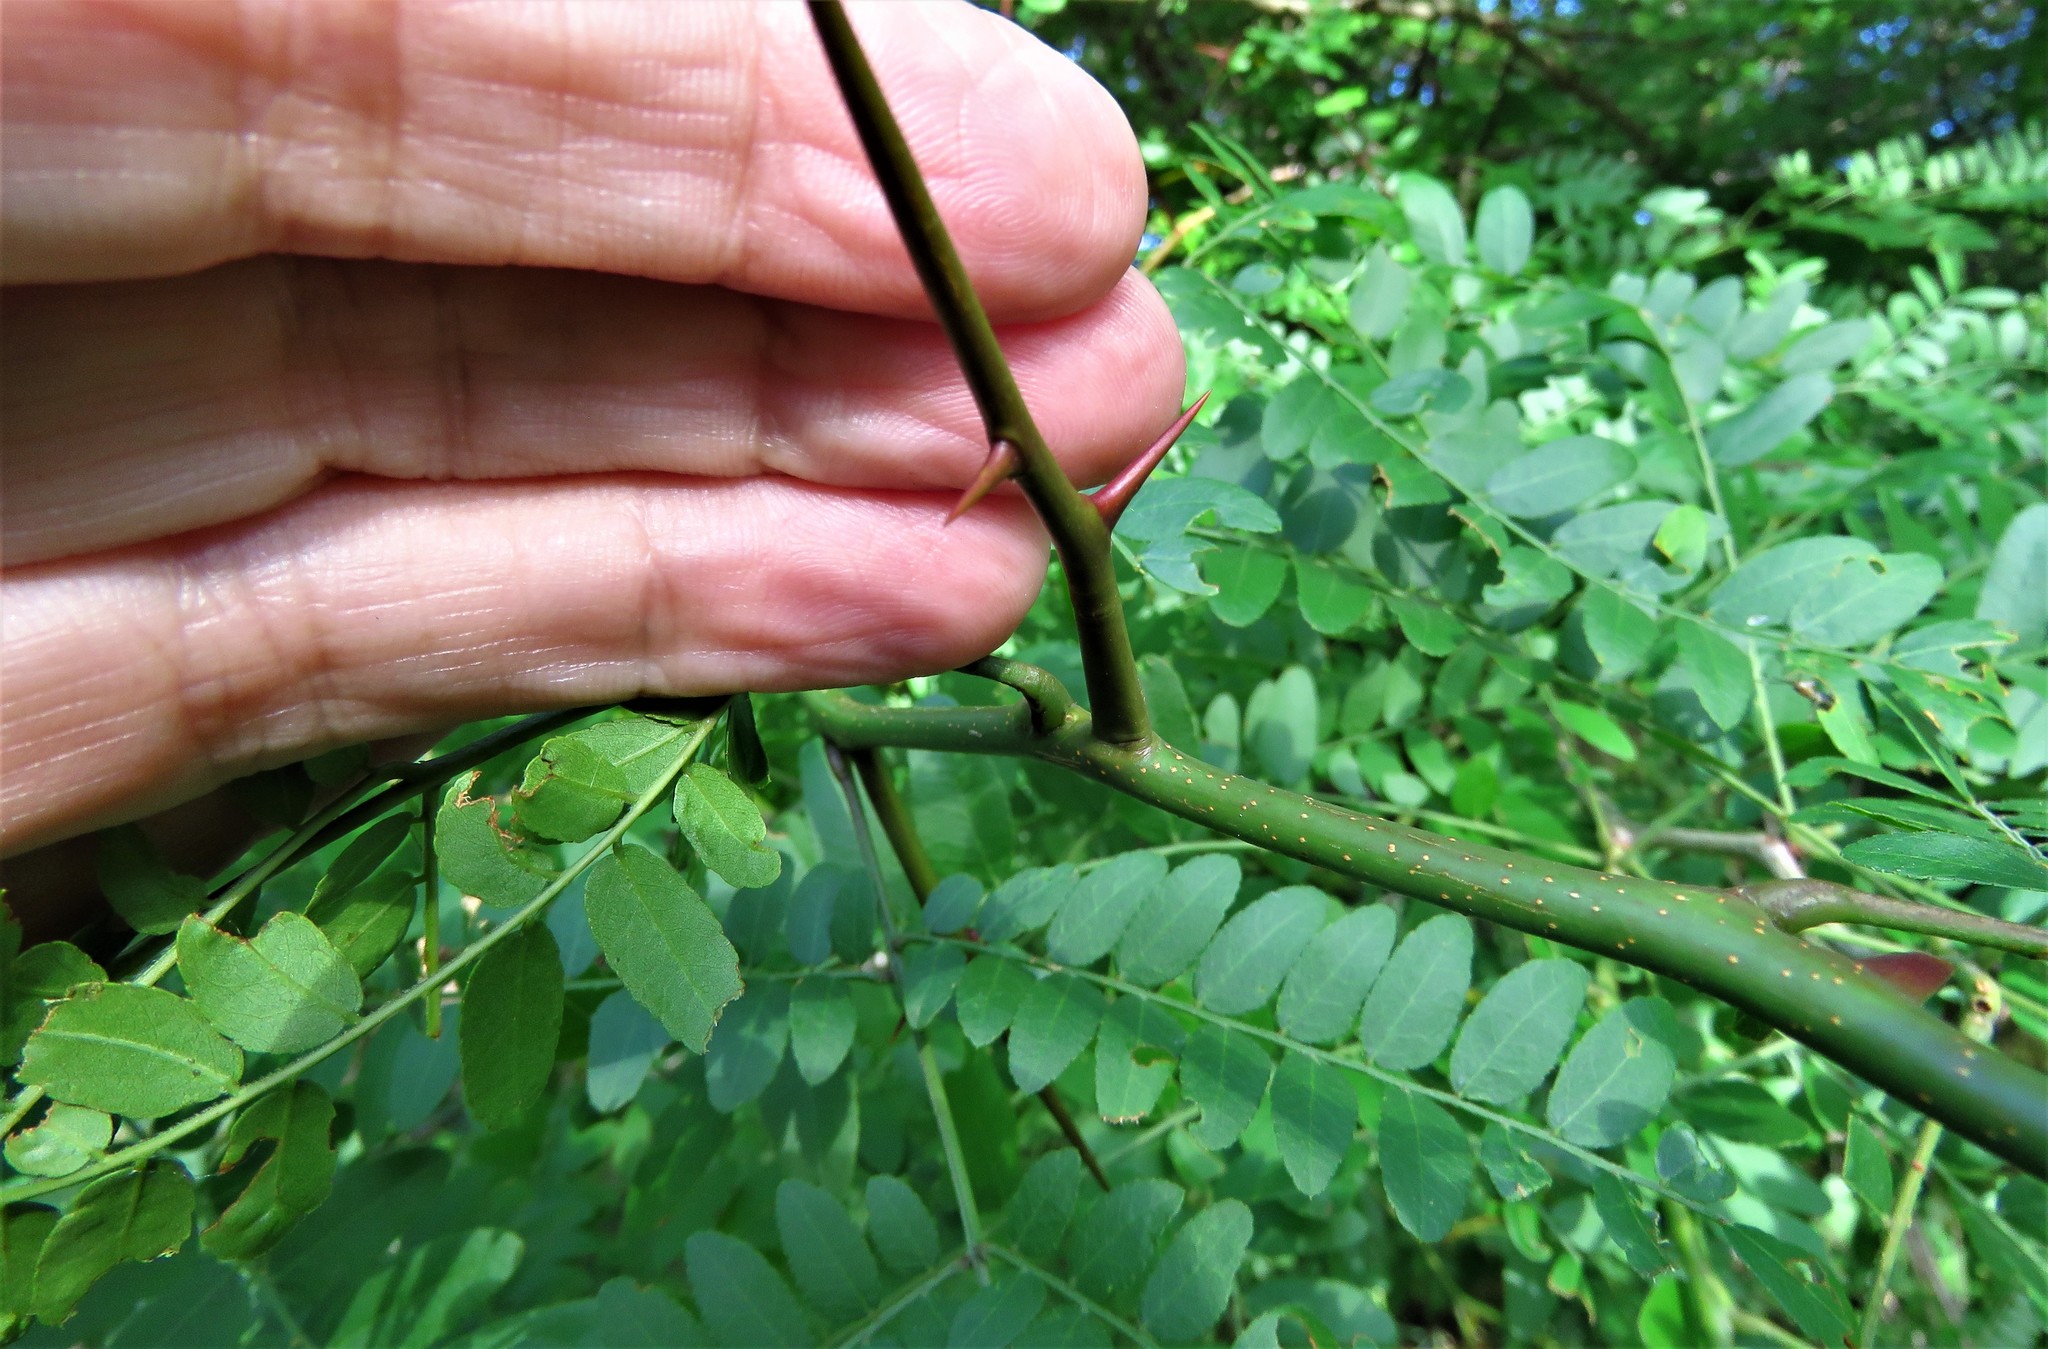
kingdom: Plantae
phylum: Tracheophyta
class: Magnoliopsida
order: Fabales
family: Fabaceae
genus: Gleditsia
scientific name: Gleditsia triacanthos
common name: Common honeylocust
